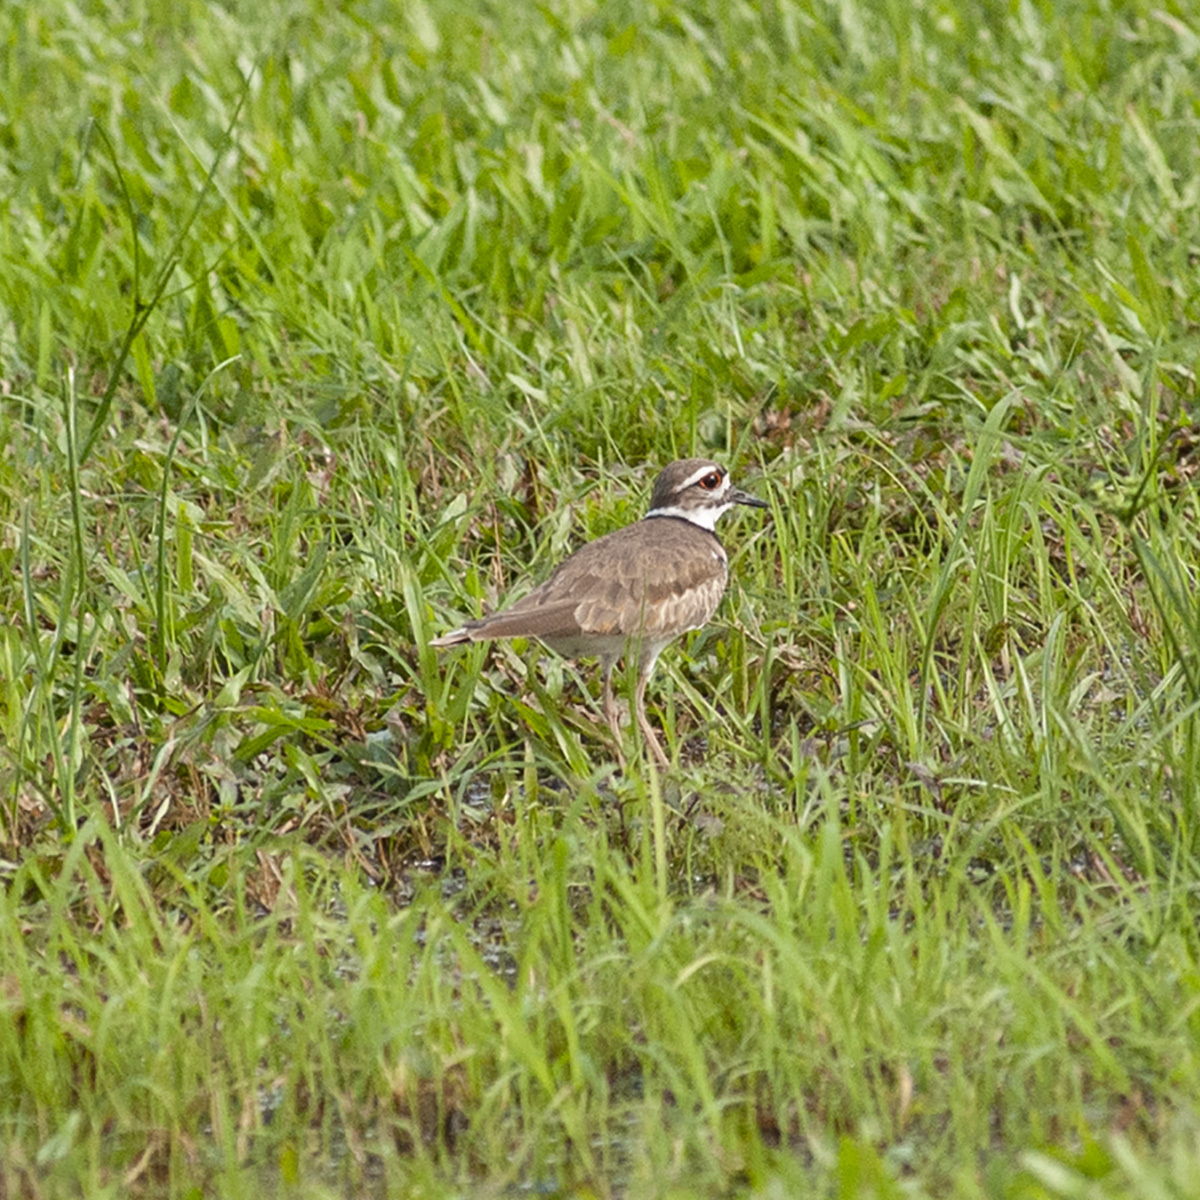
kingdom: Animalia
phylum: Chordata
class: Aves
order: Charadriiformes
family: Charadriidae
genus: Charadrius
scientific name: Charadrius vociferus
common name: Killdeer
